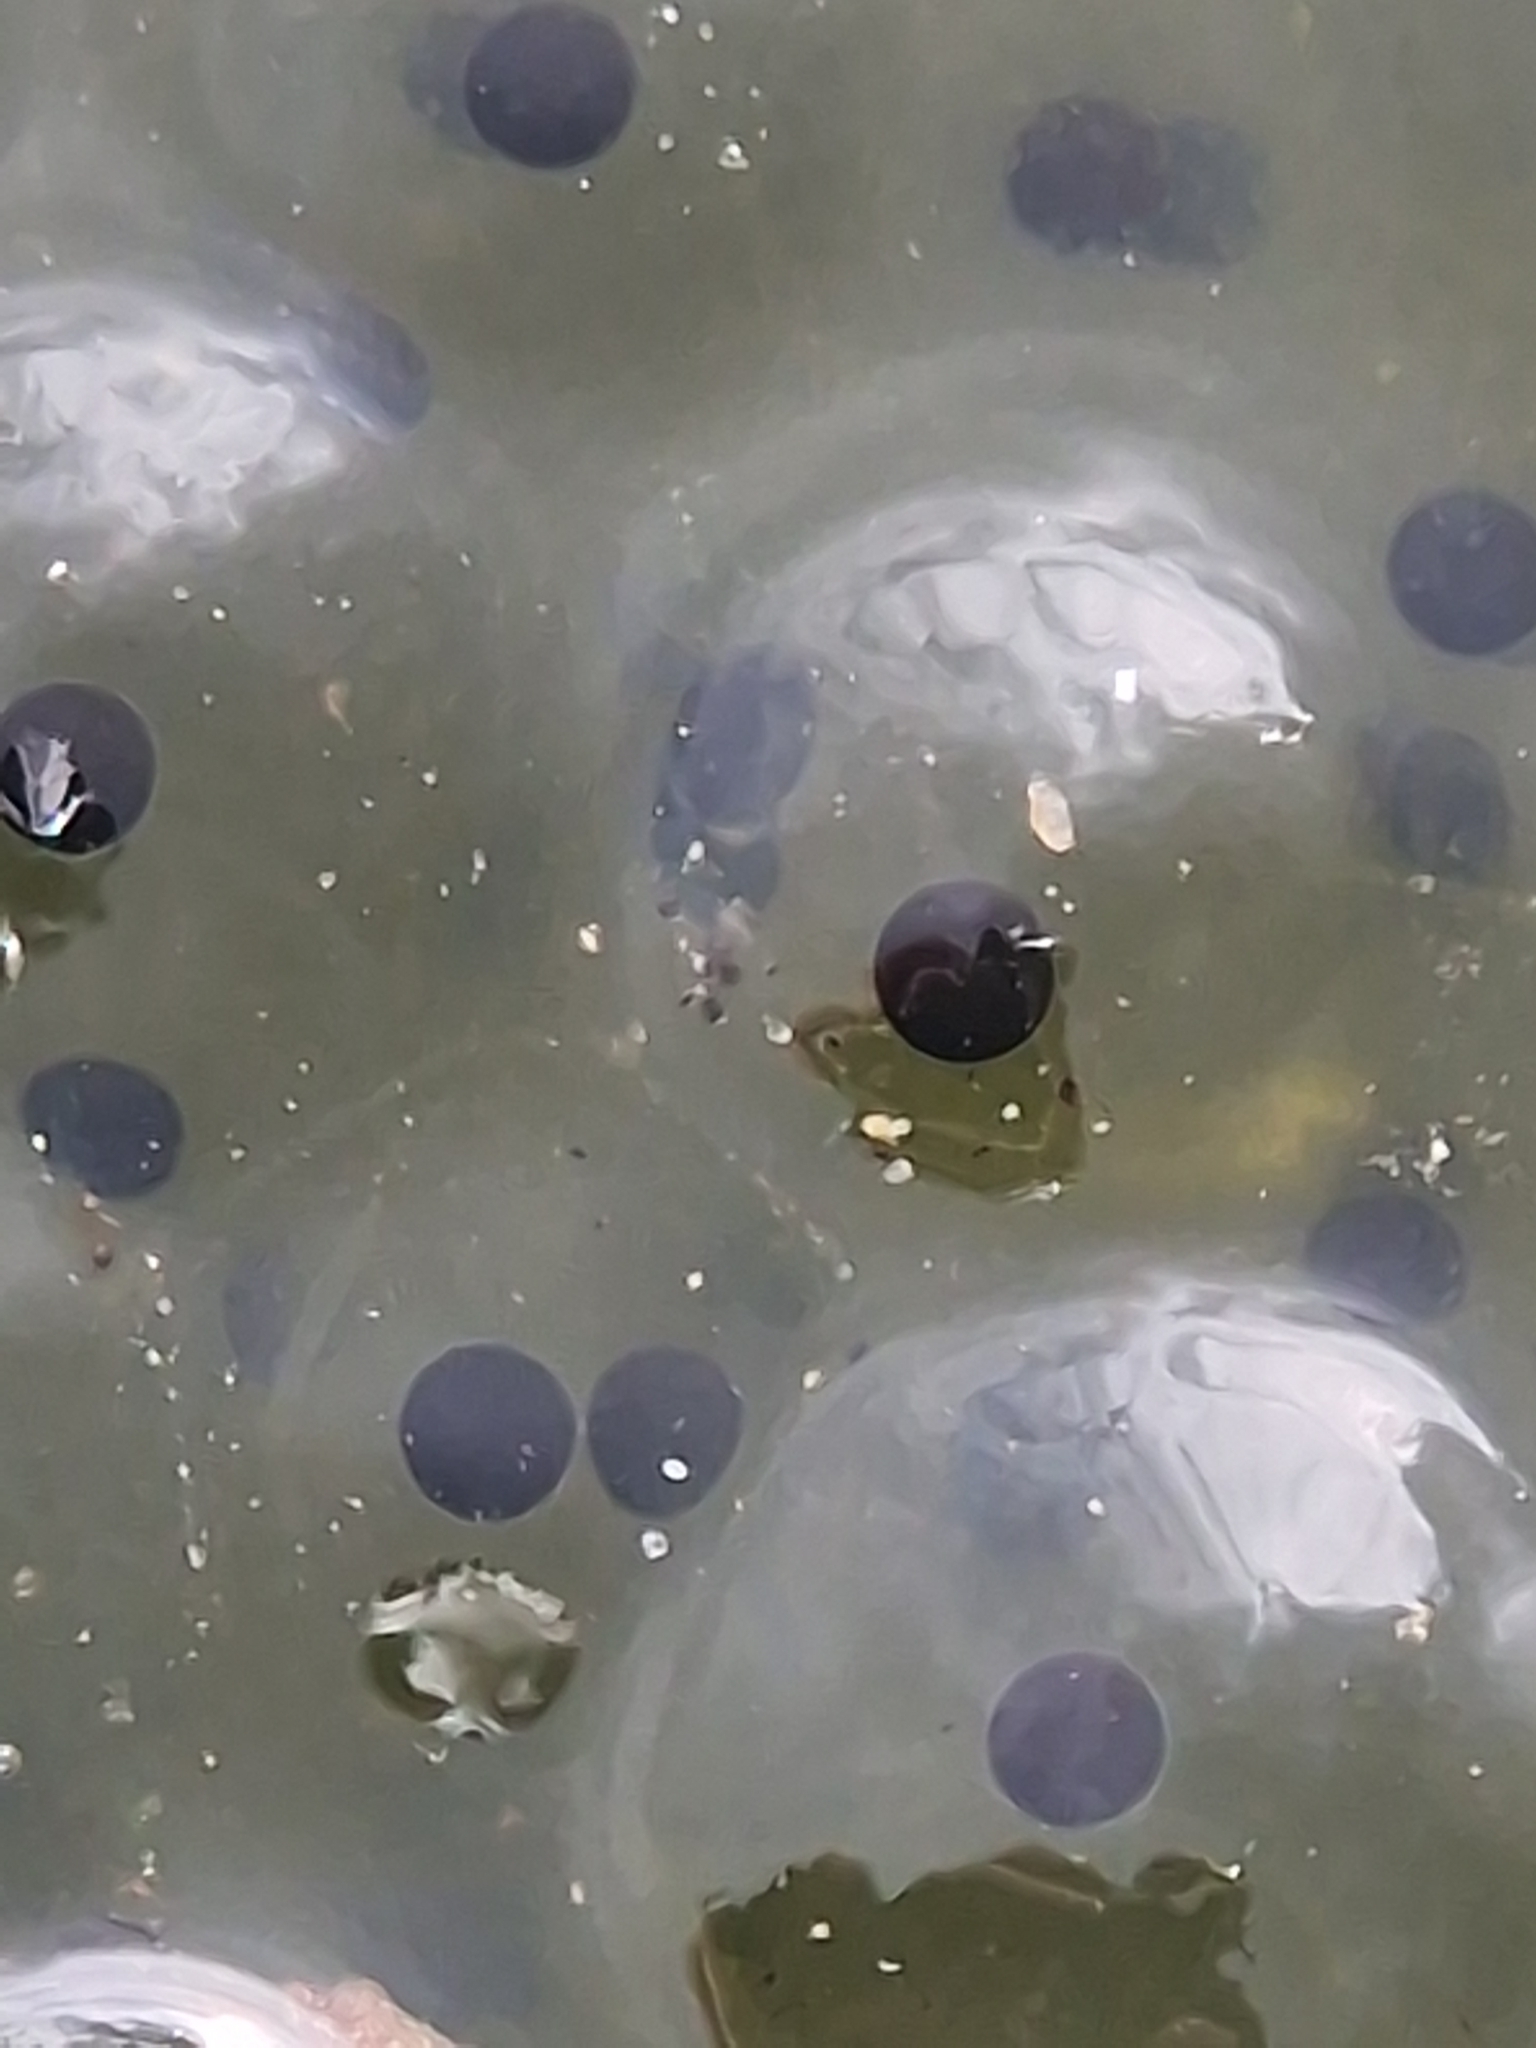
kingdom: Animalia
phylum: Chordata
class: Amphibia
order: Anura
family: Ranidae
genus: Rana
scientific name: Rana temporaria
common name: Common frog
